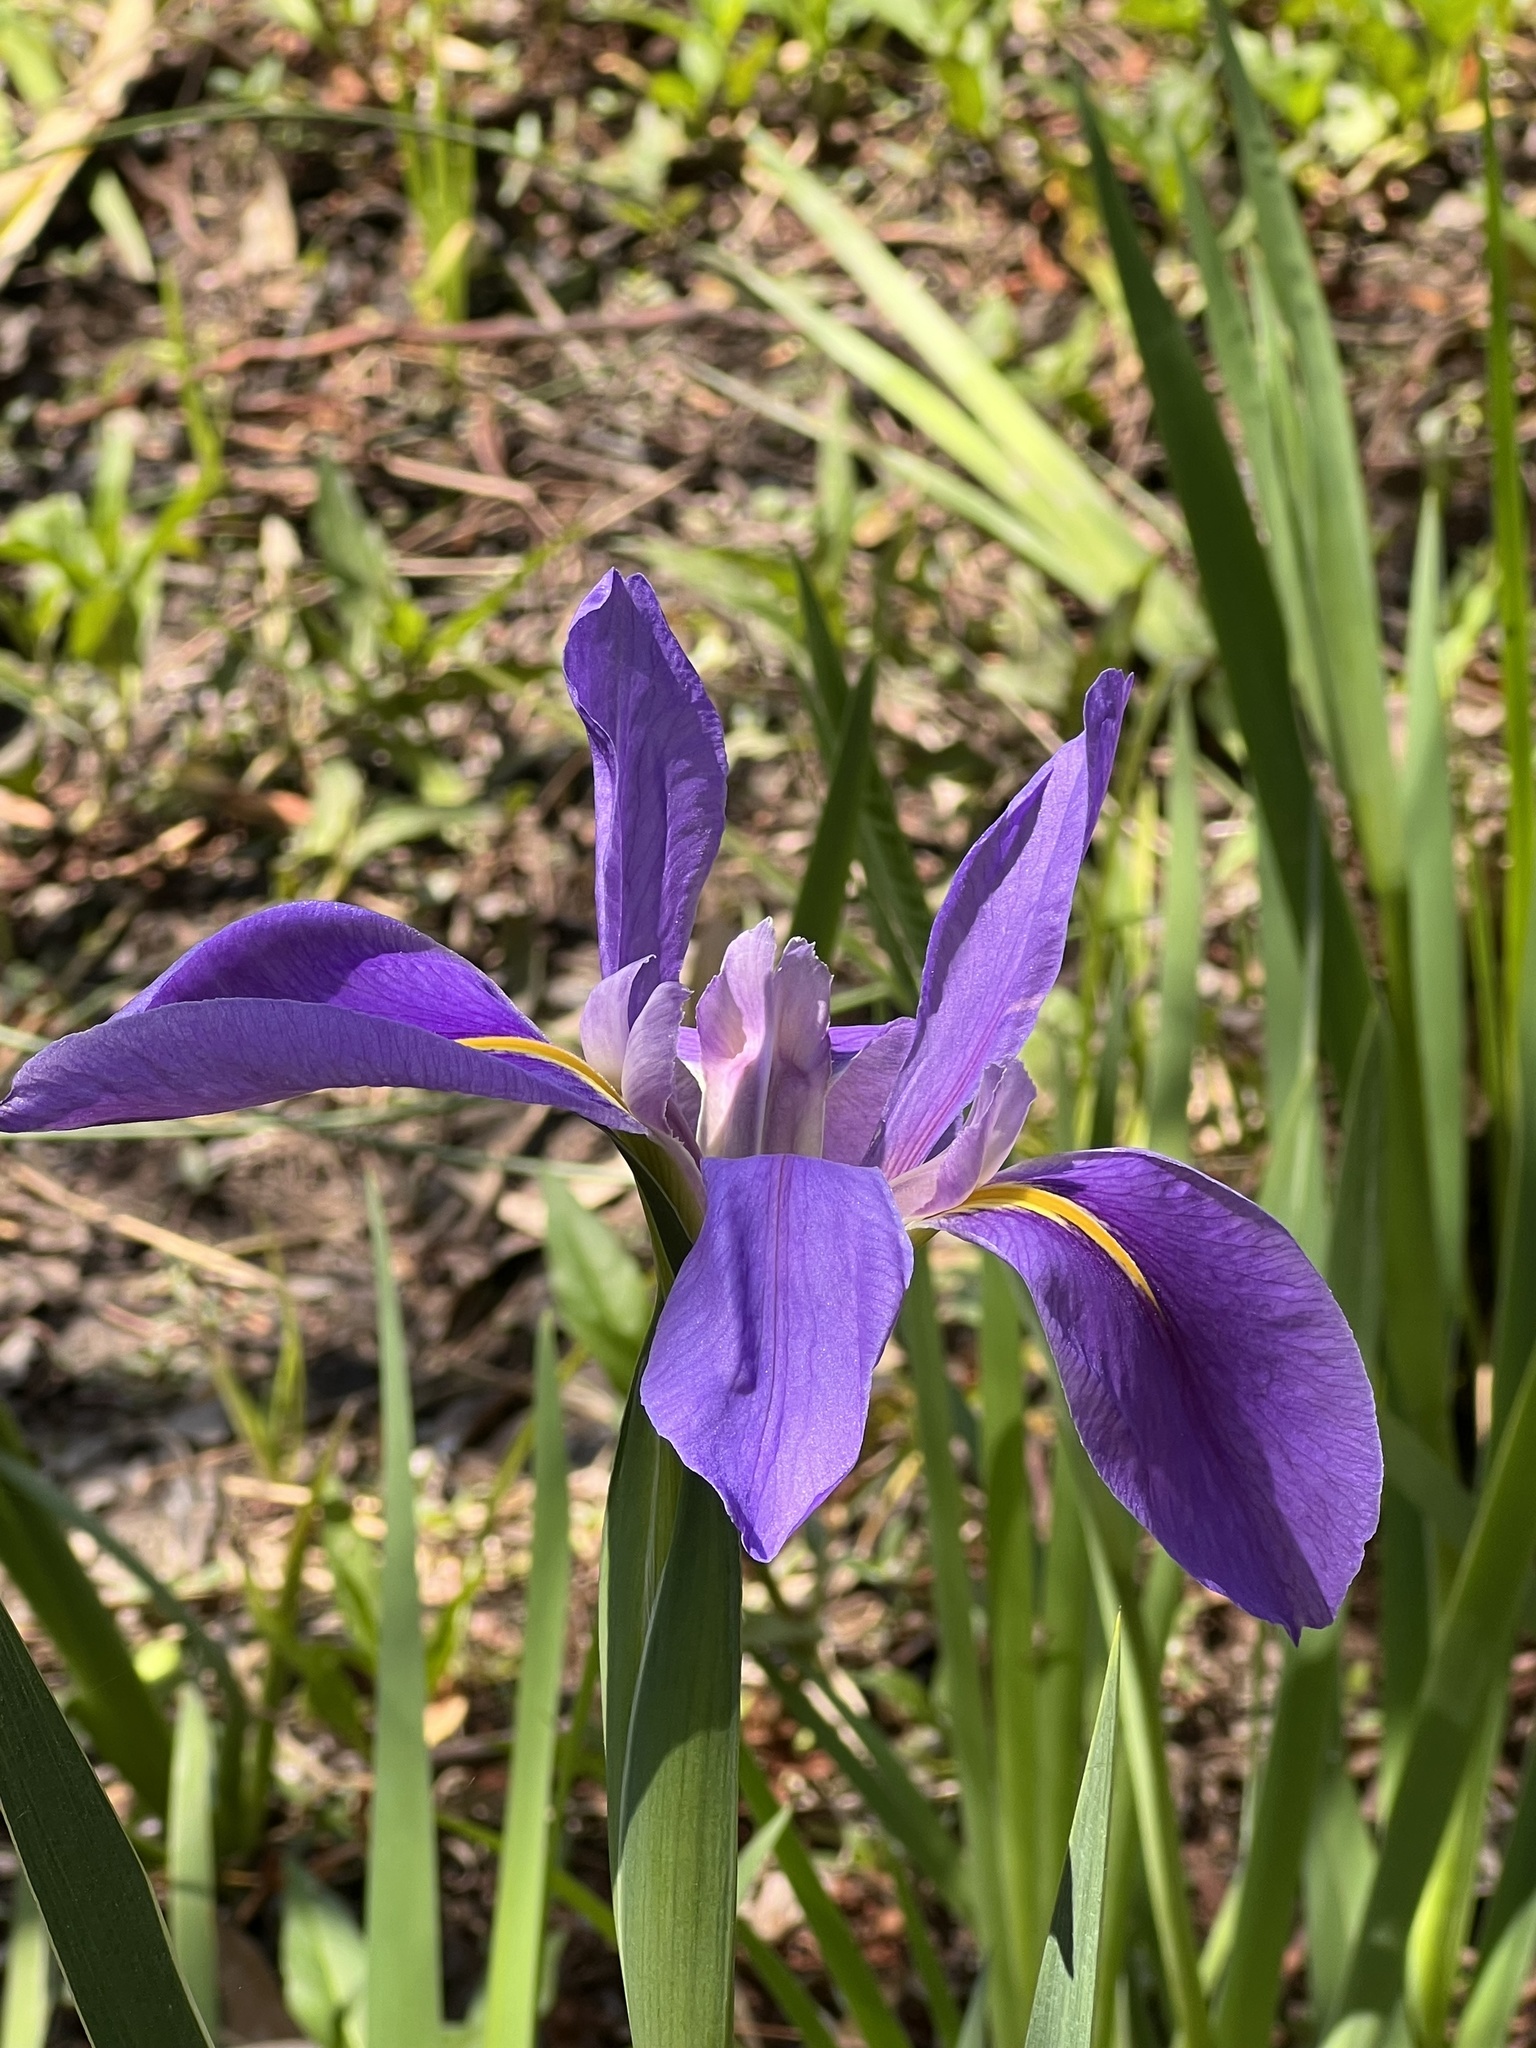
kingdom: Plantae
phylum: Tracheophyta
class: Liliopsida
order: Asparagales
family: Iridaceae
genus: Iris
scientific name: Iris giganticaerulea
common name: Giant blue iris
